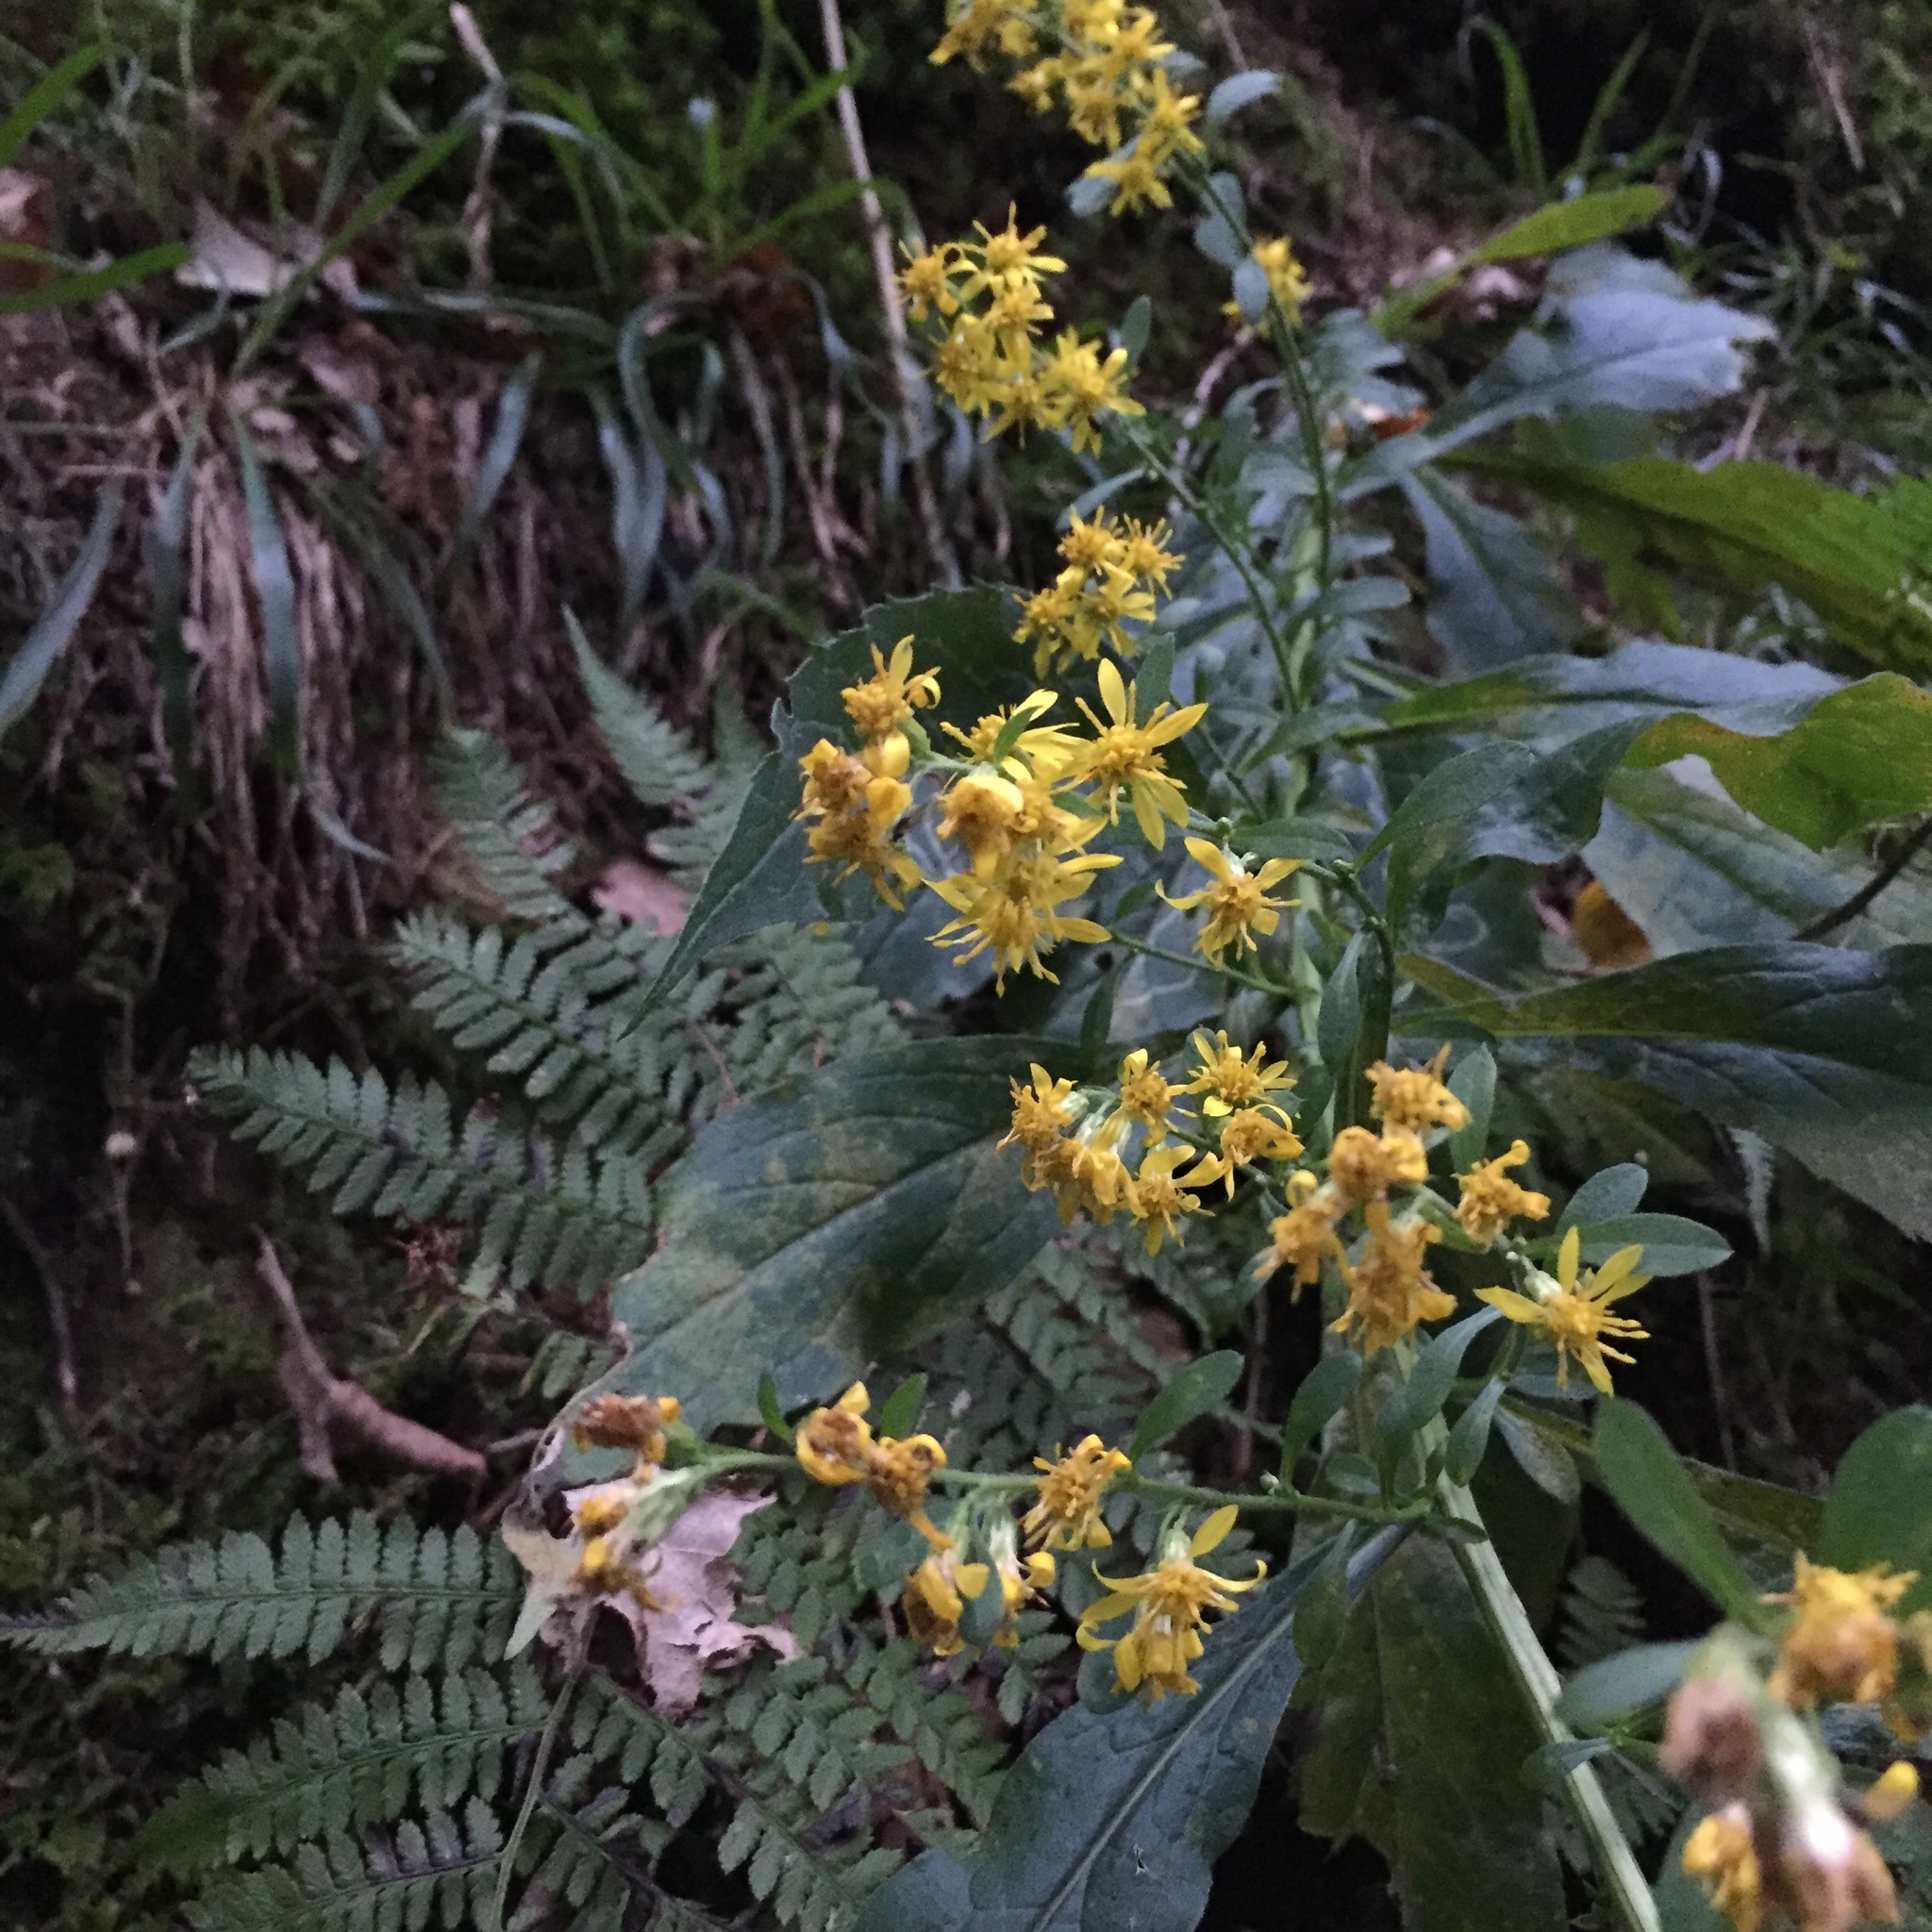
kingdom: Plantae
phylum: Tracheophyta
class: Magnoliopsida
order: Asterales
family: Asteraceae
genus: Solidago
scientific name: Solidago virgaurea
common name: Goldenrod
